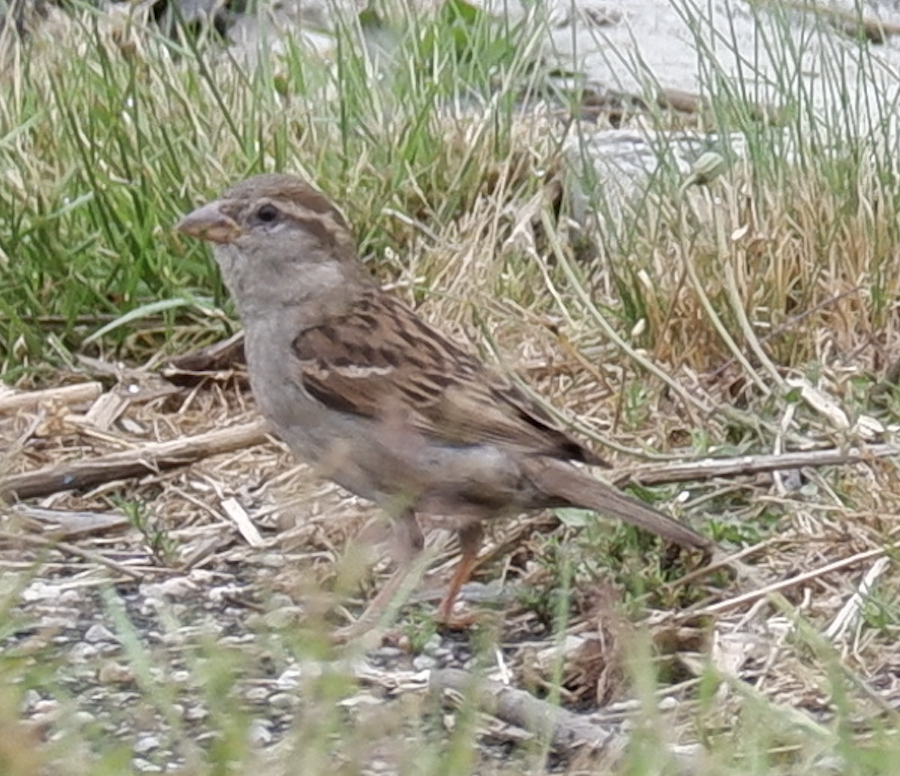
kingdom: Animalia
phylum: Chordata
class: Aves
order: Passeriformes
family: Passeridae
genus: Passer
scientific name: Passer domesticus
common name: House sparrow
